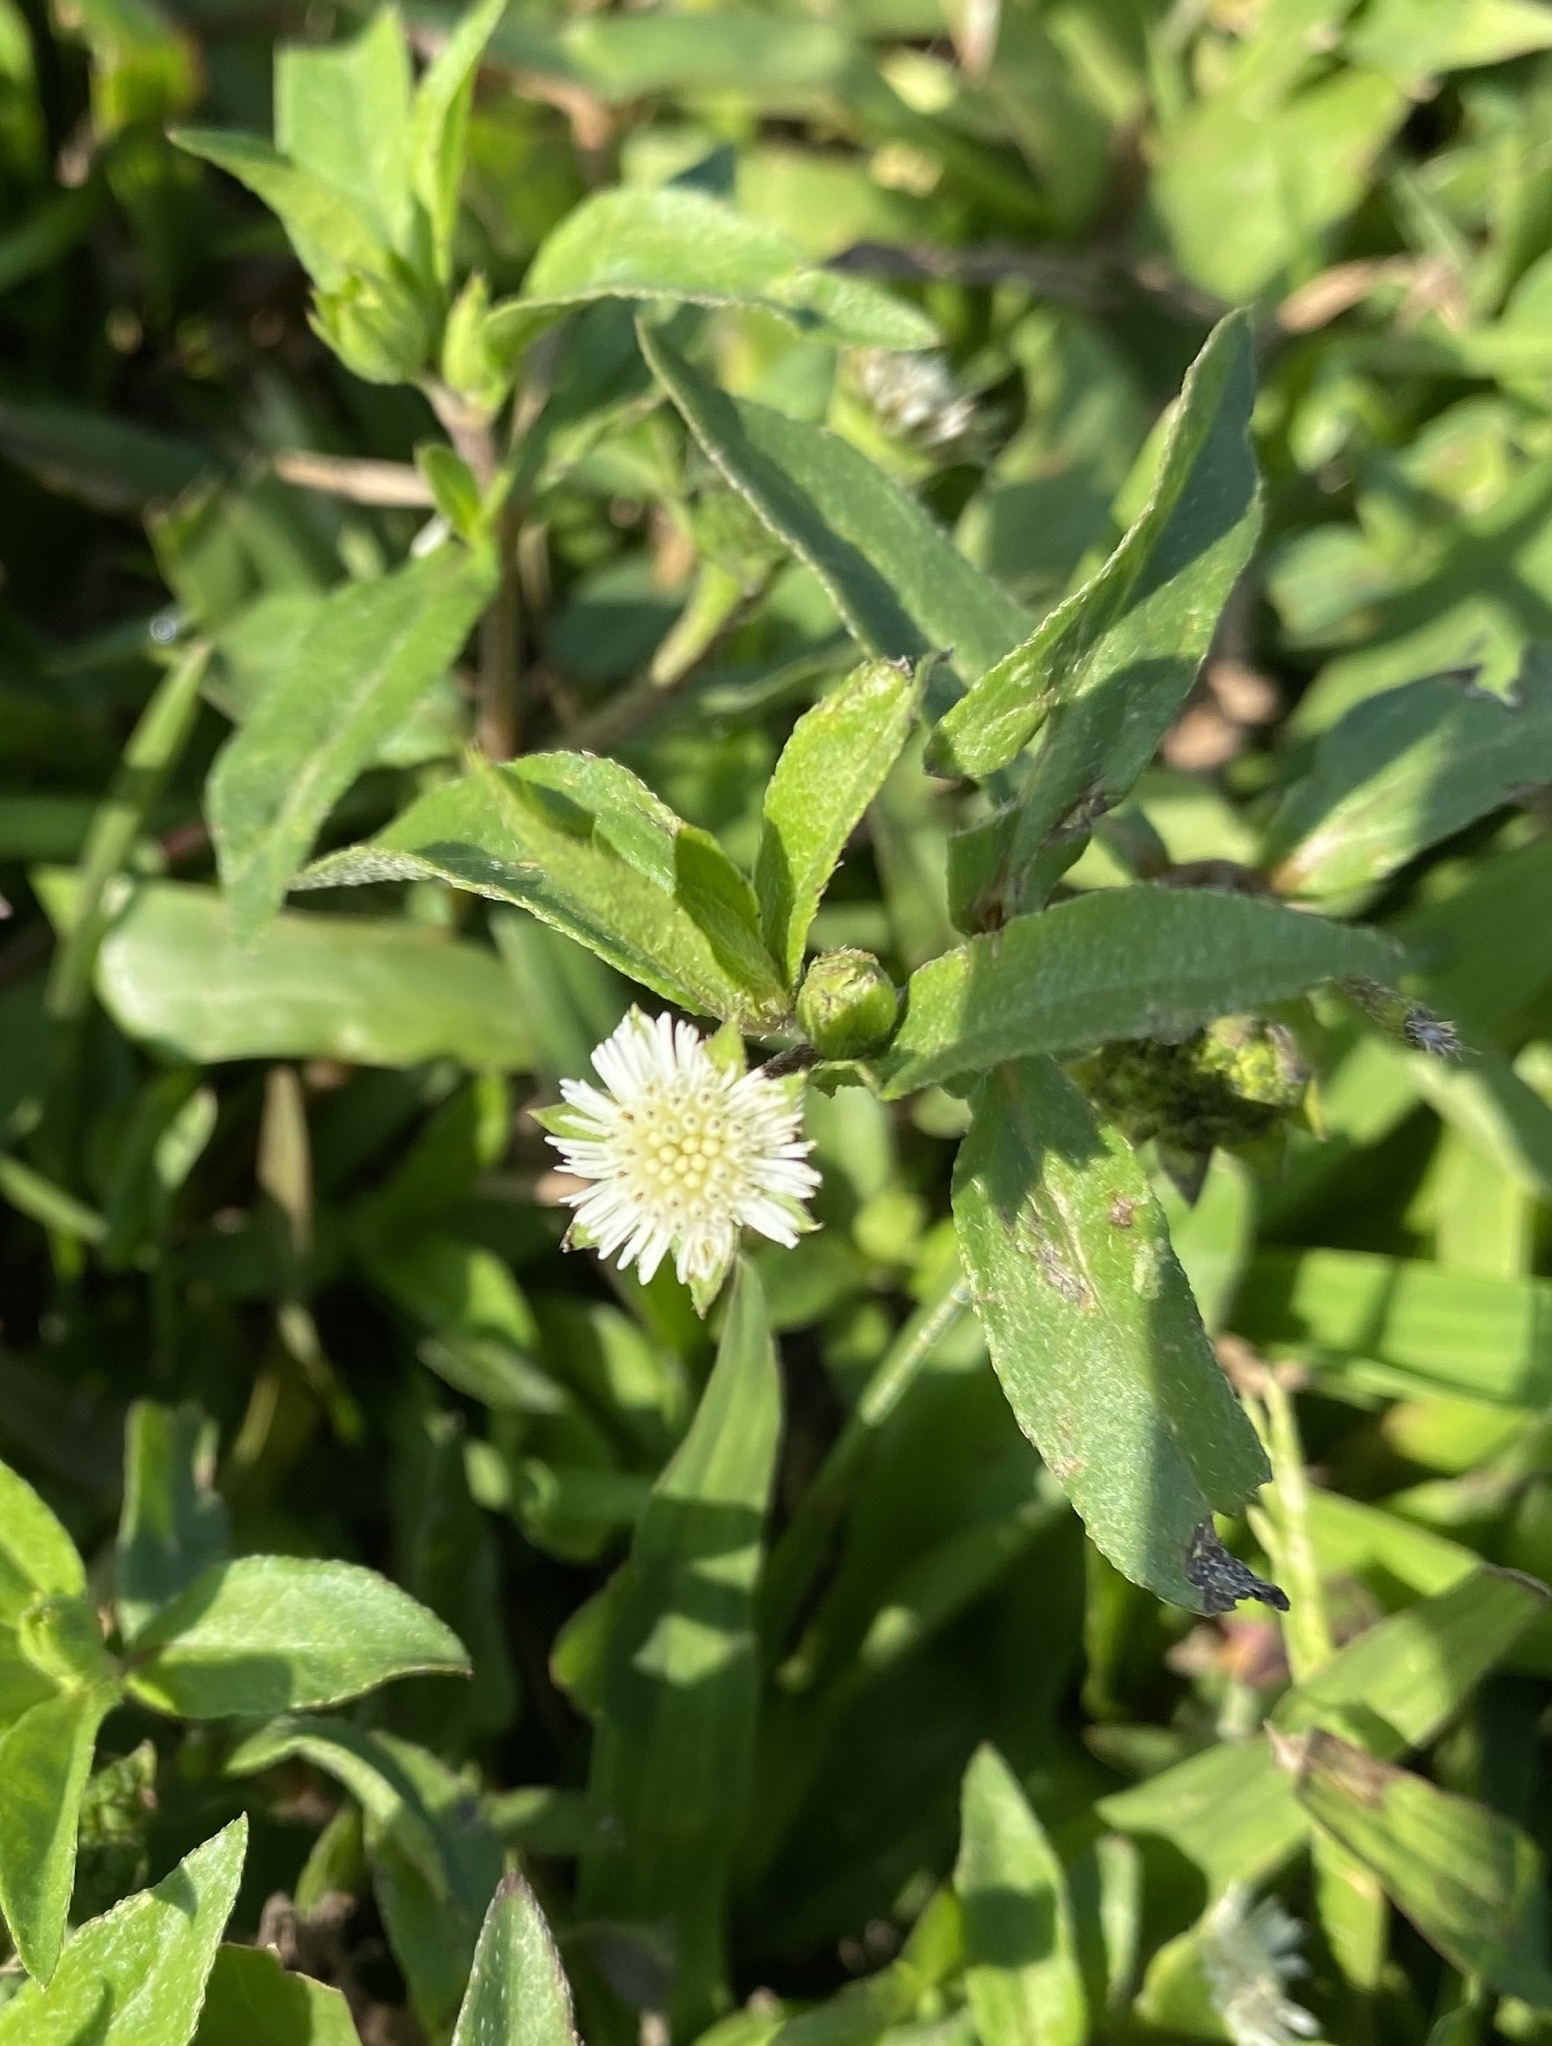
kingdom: Plantae
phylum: Tracheophyta
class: Magnoliopsida
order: Asterales
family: Asteraceae
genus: Eclipta
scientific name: Eclipta prostrata
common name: False daisy
